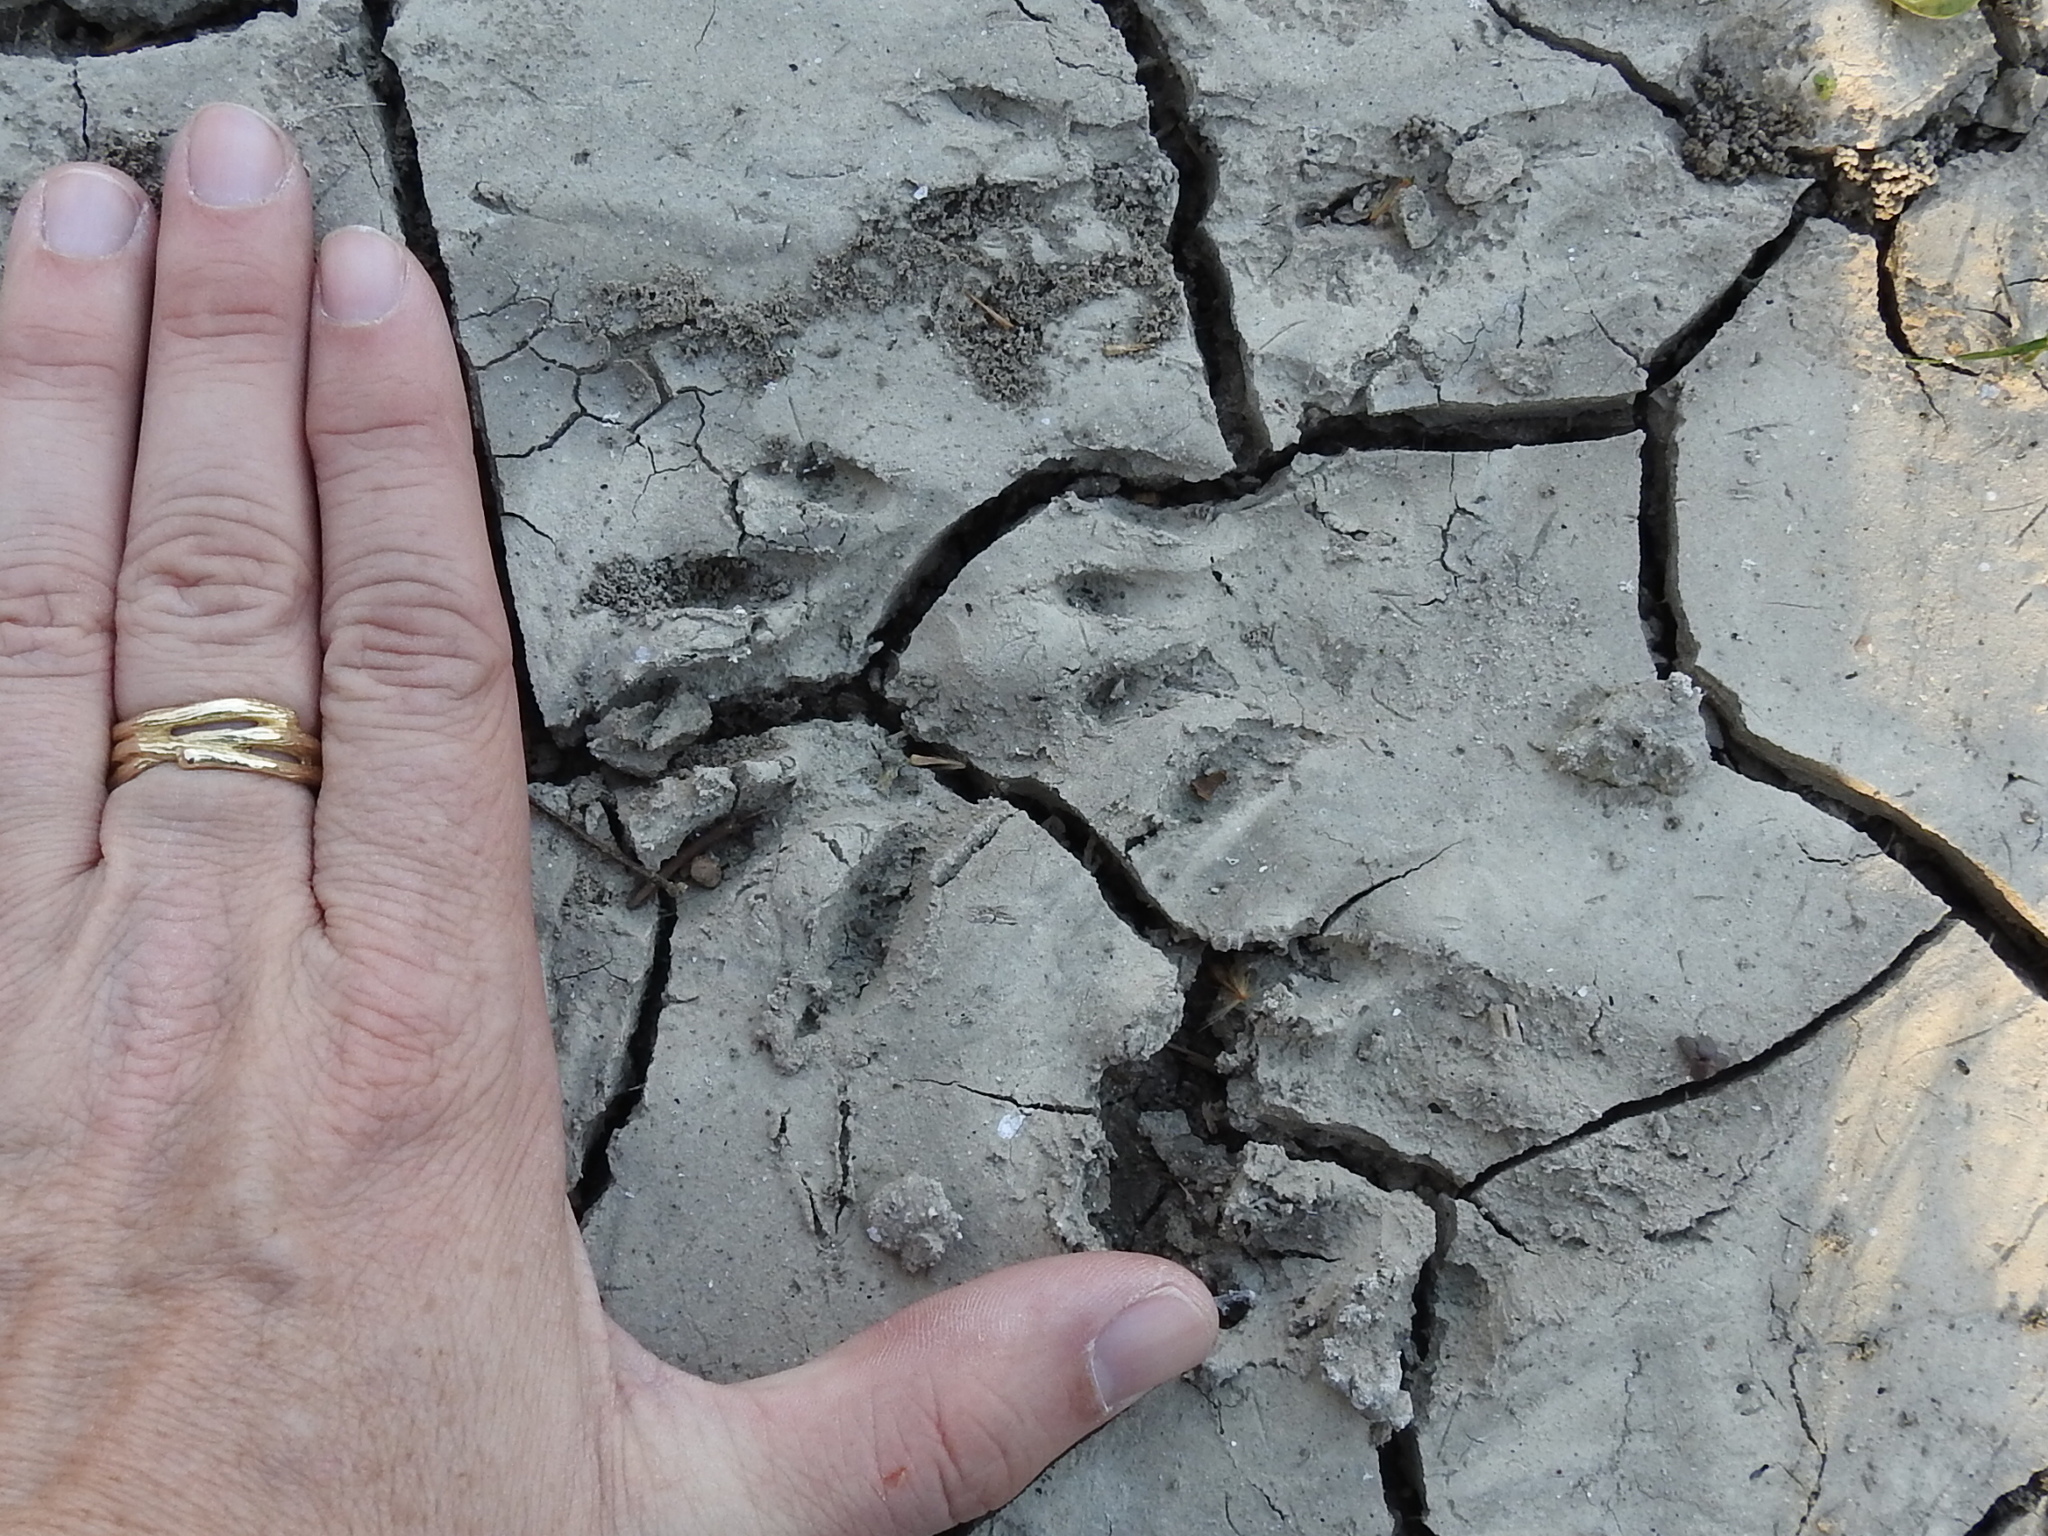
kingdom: Animalia
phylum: Chordata
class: Mammalia
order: Carnivora
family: Procyonidae
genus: Procyon
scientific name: Procyon lotor
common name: Raccoon
